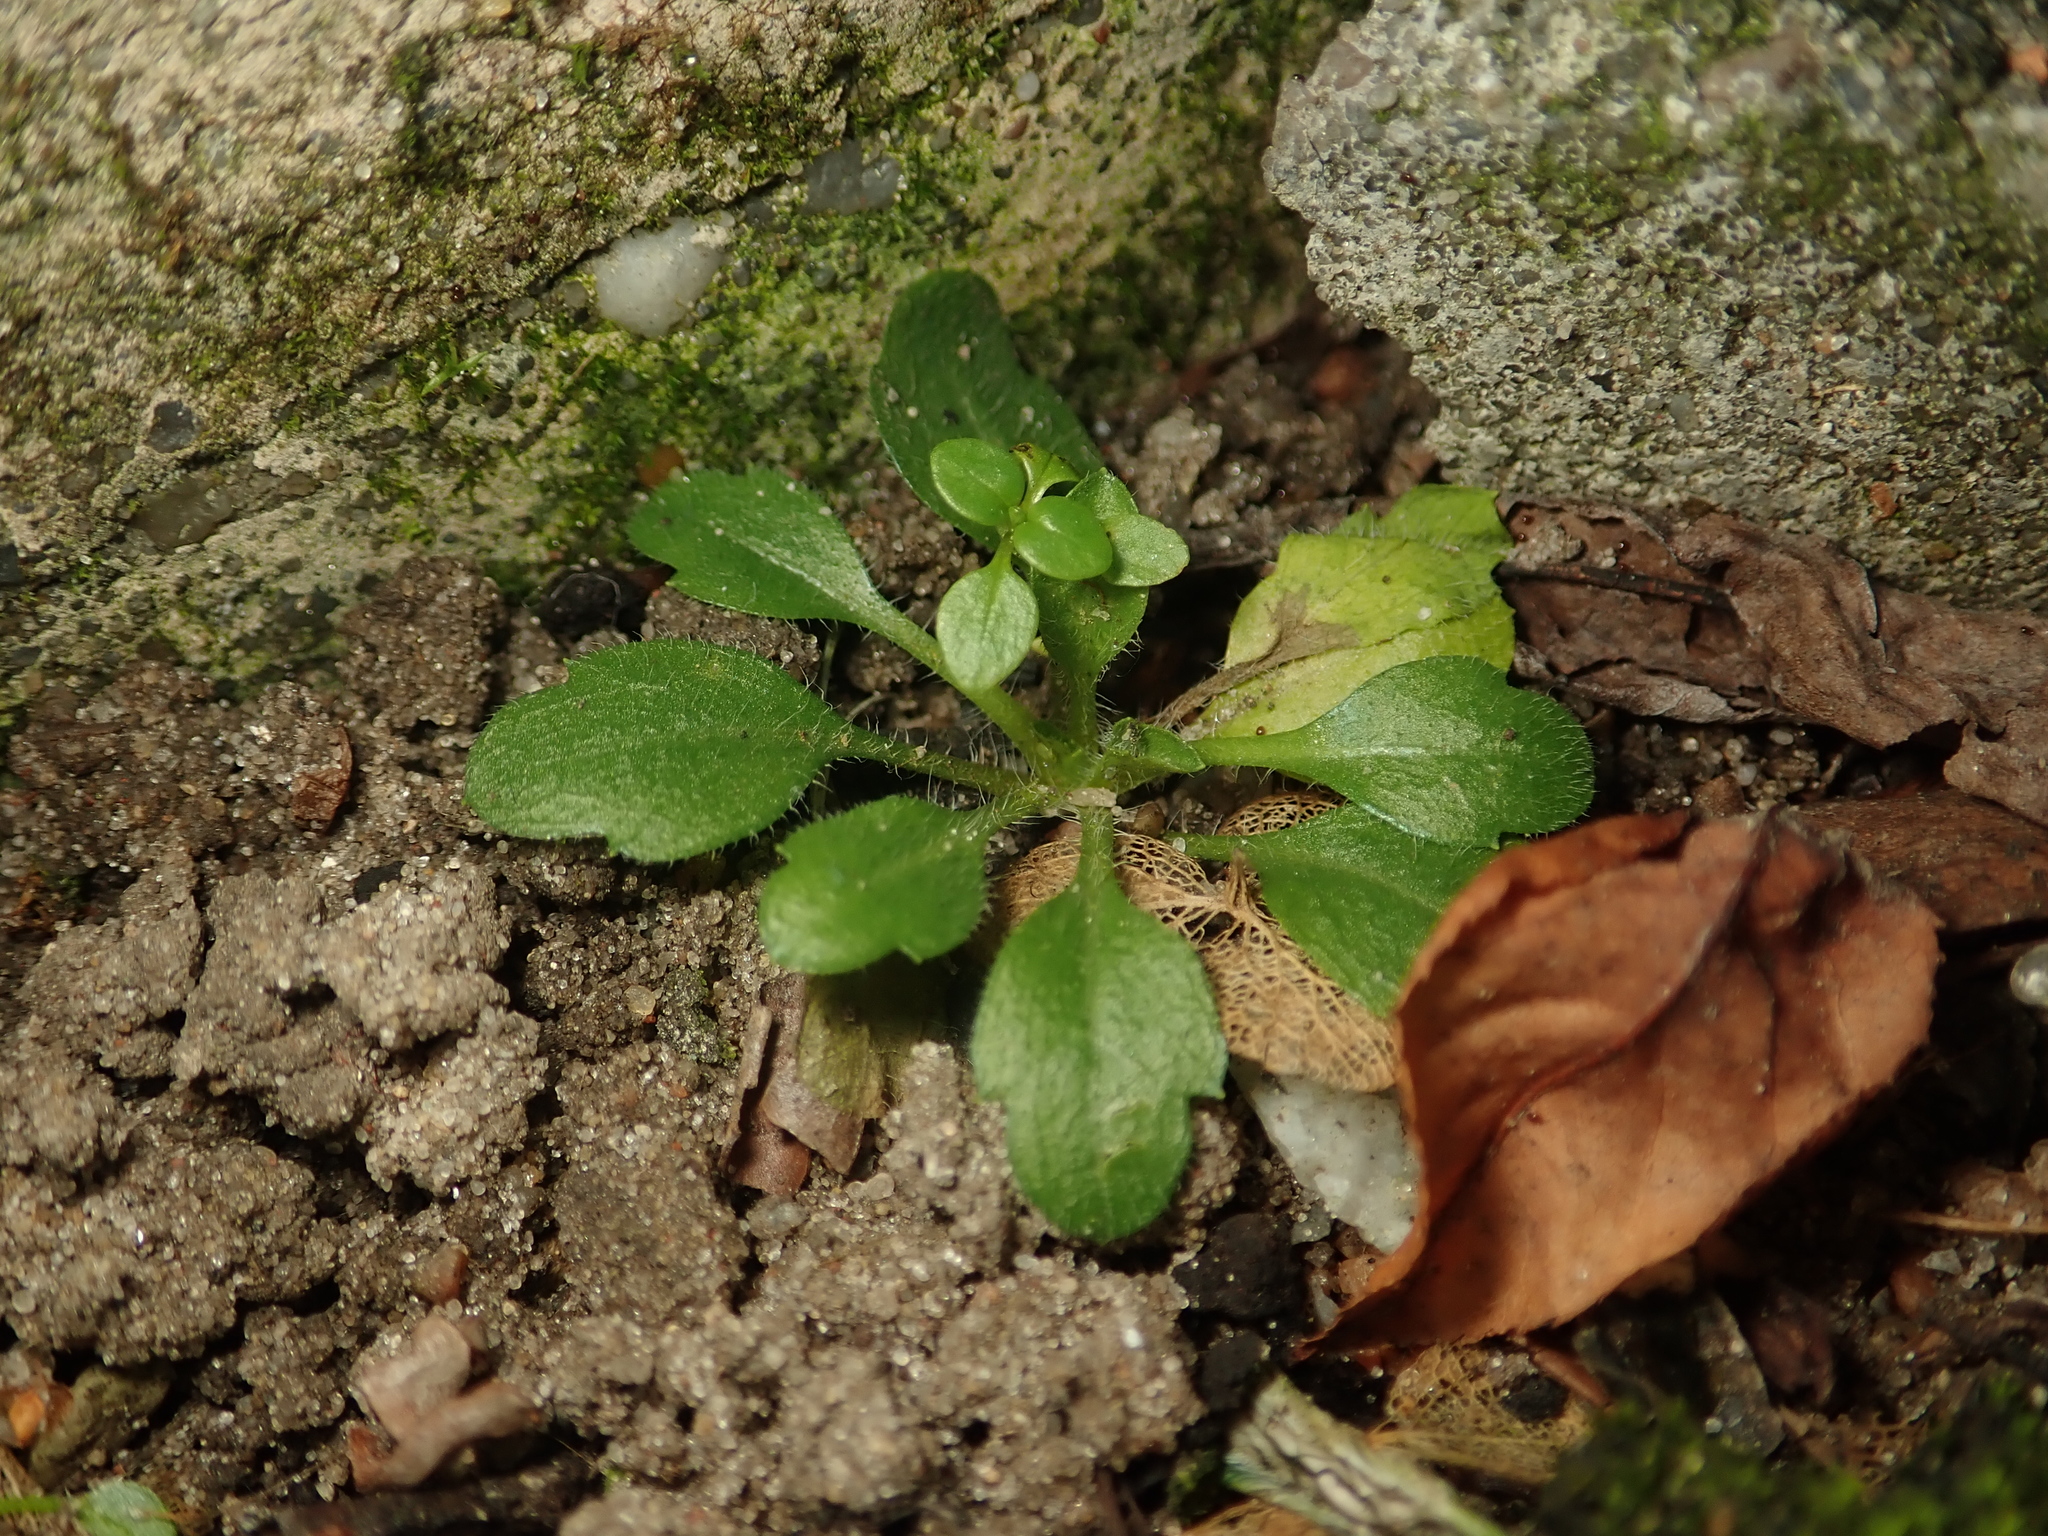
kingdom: Plantae
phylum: Tracheophyta
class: Magnoliopsida
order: Asterales
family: Asteraceae
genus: Erigeron
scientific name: Erigeron canadensis
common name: Canadian fleabane
